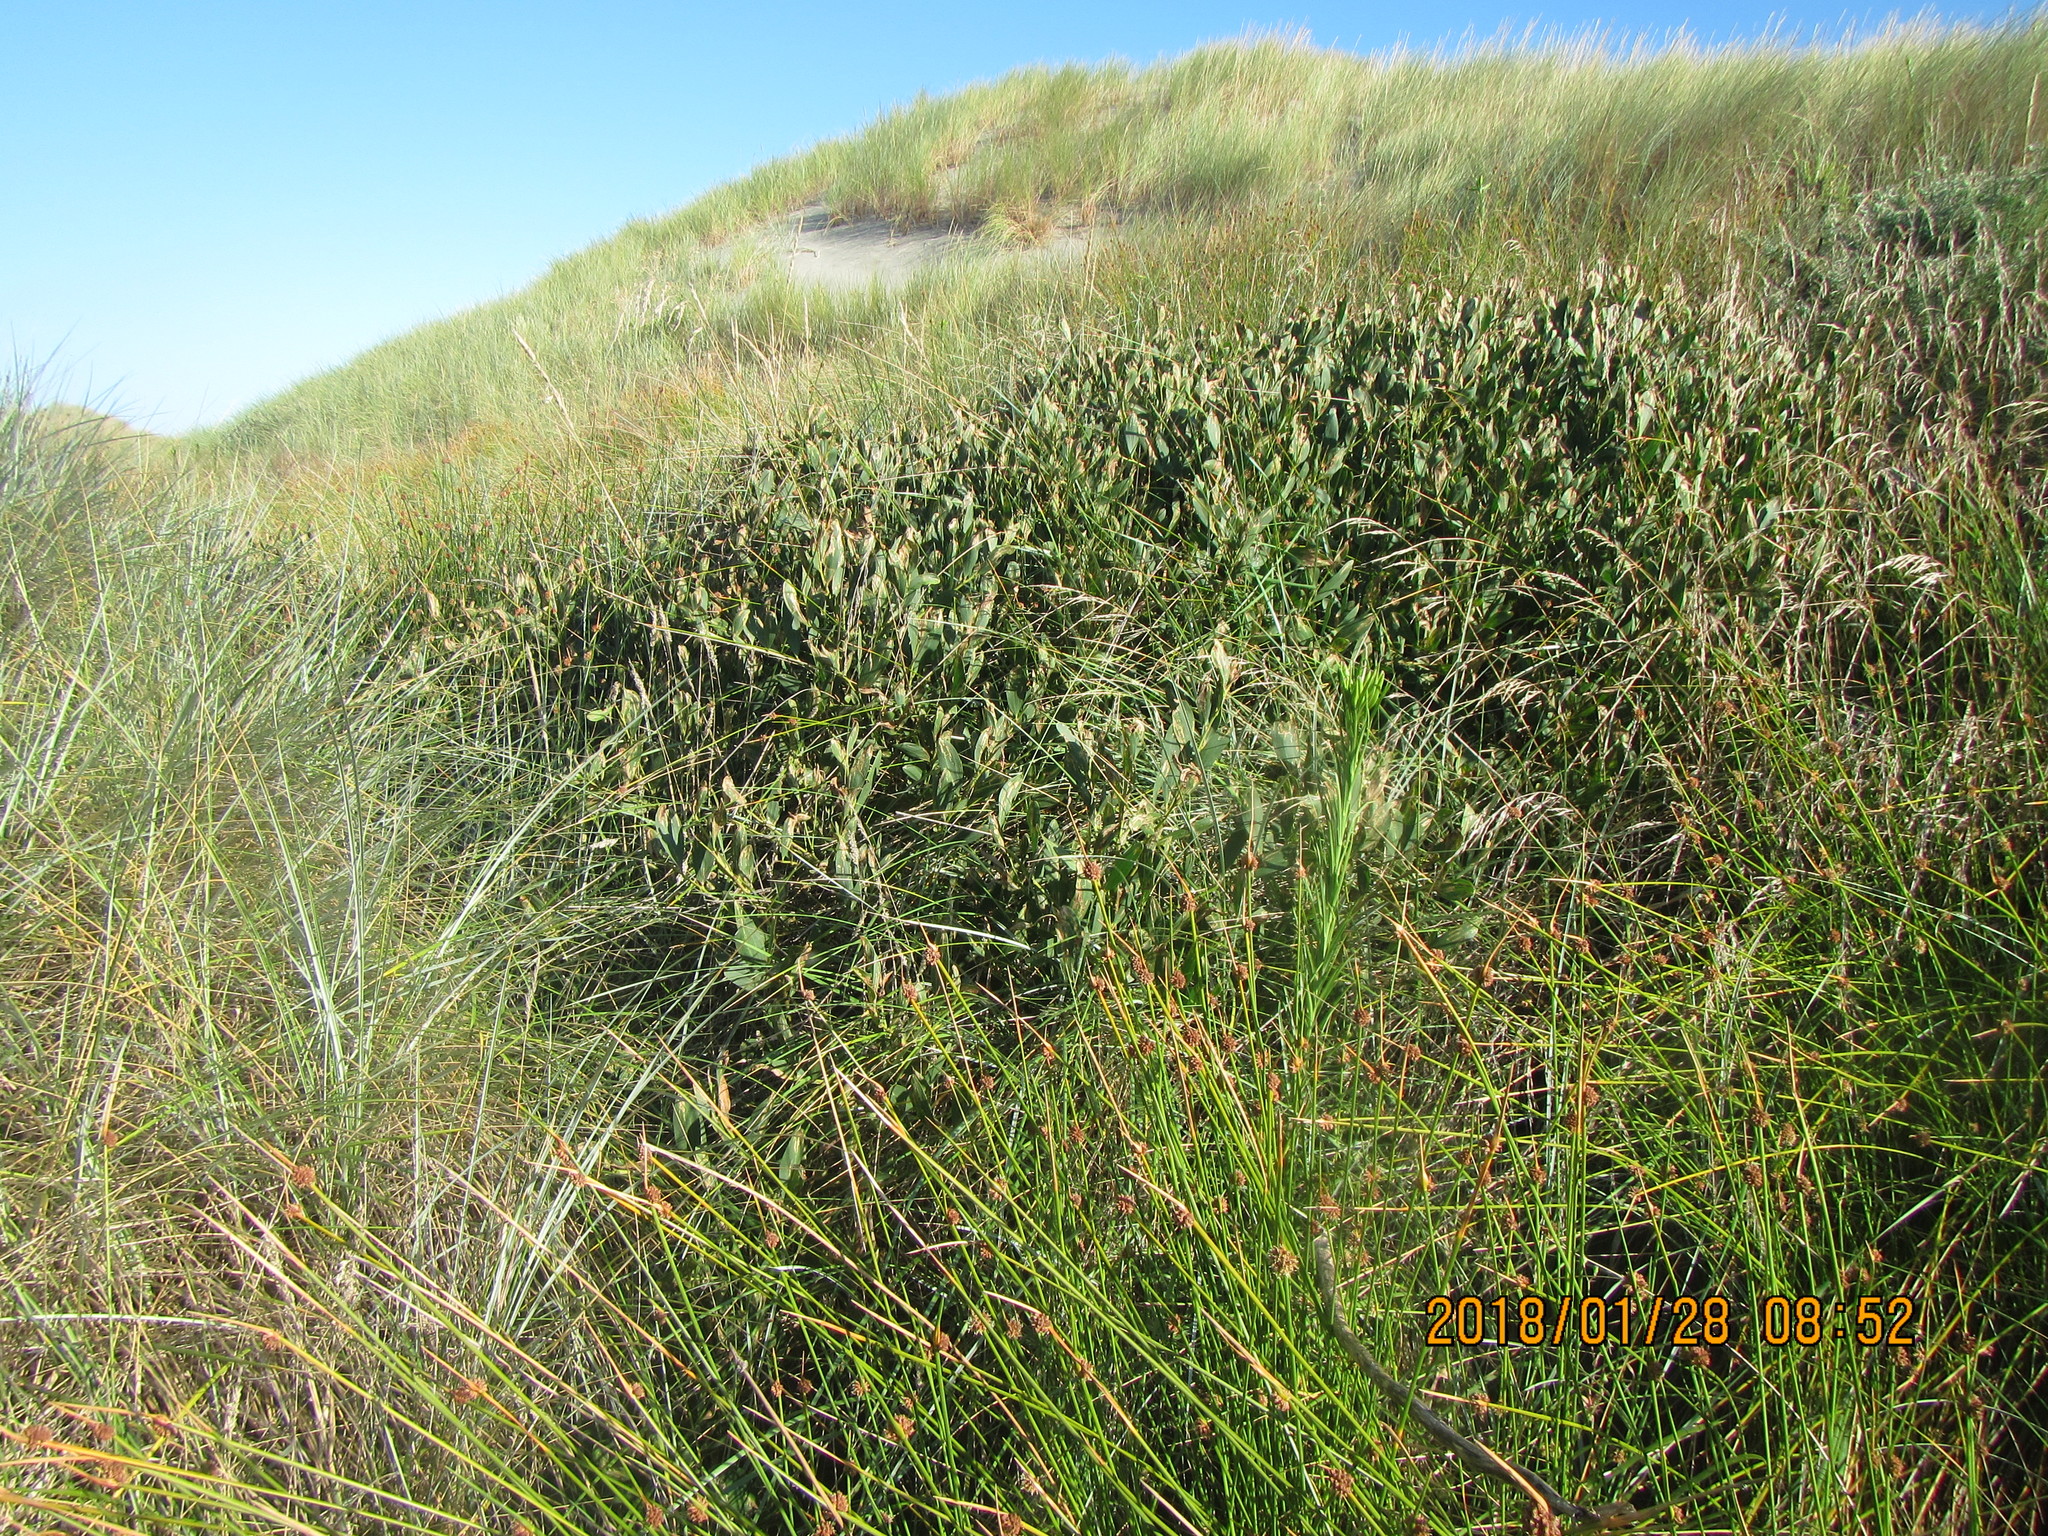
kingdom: Plantae
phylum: Tracheophyta
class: Magnoliopsida
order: Fabales
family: Fabaceae
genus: Acacia
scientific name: Acacia longifolia
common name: Sydney golden wattle
